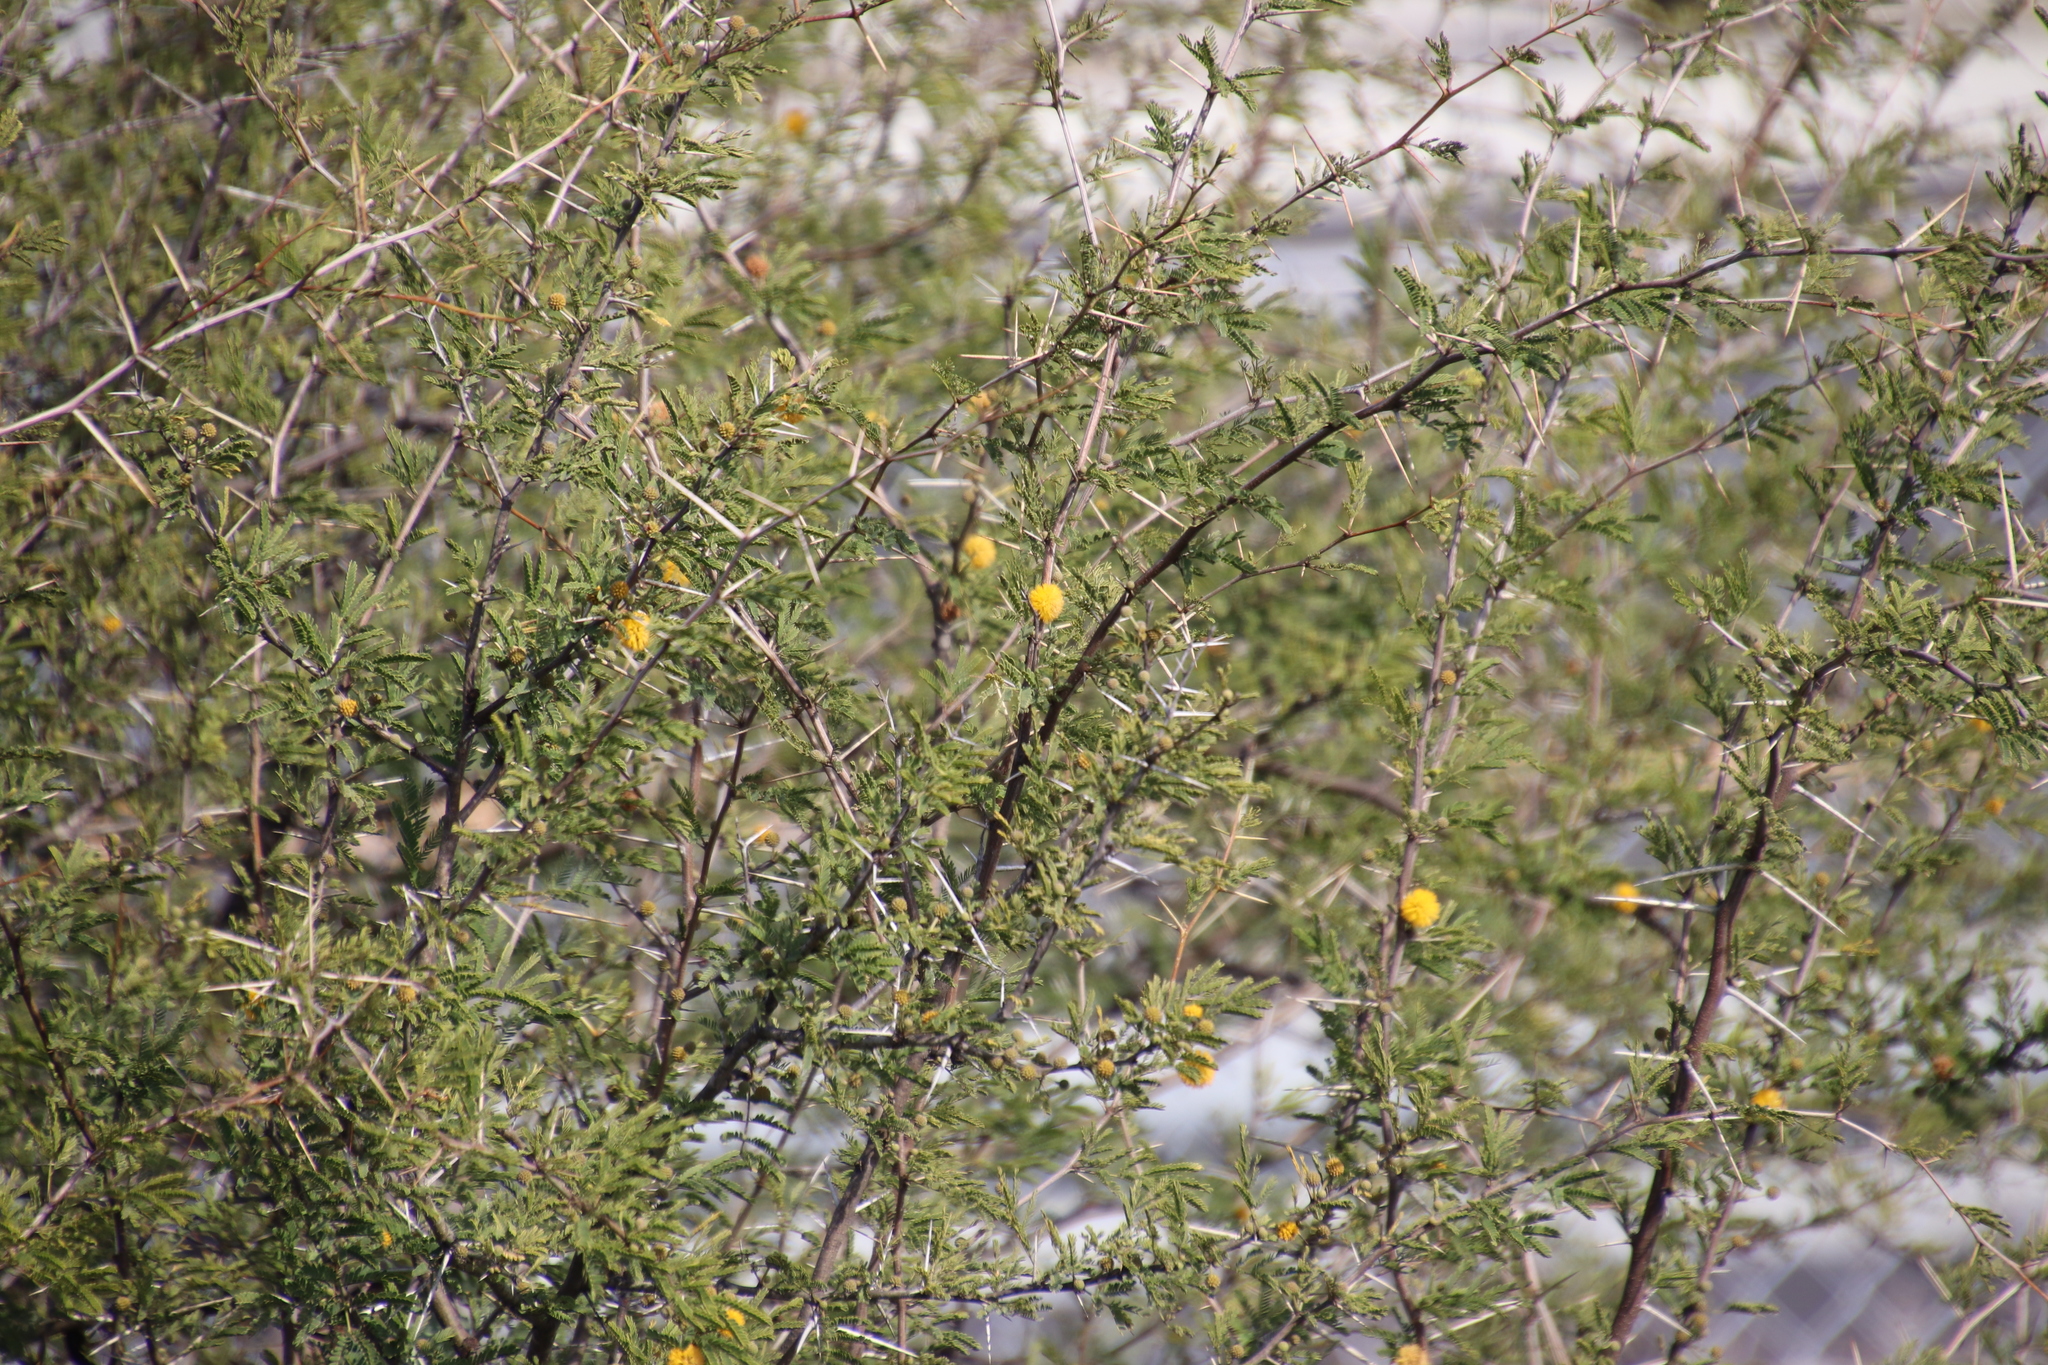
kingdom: Plantae
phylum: Tracheophyta
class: Magnoliopsida
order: Fabales
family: Fabaceae
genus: Vachellia
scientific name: Vachellia farnesiana
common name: Sweet acacia
